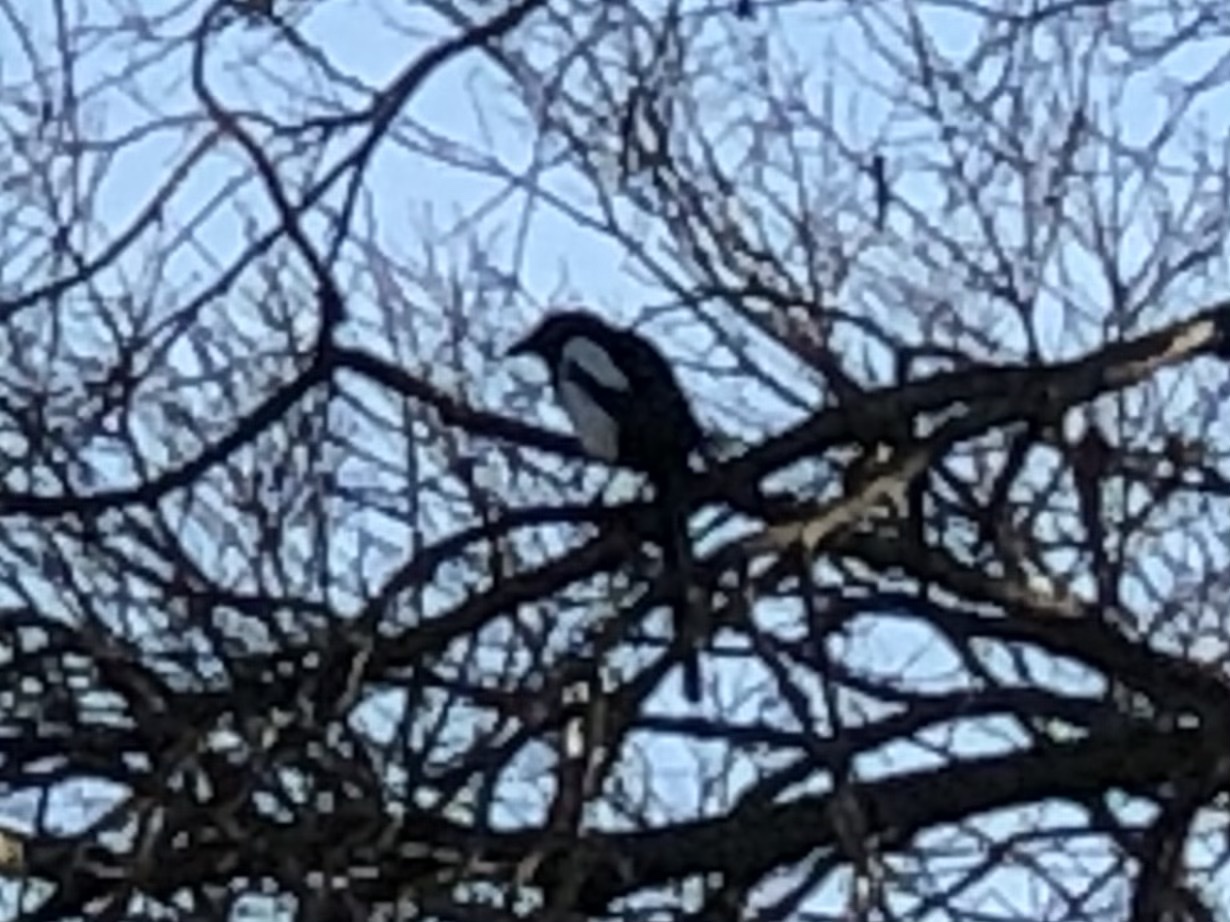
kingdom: Animalia
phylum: Chordata
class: Aves
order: Passeriformes
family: Corvidae
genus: Pica
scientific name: Pica pica
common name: Eurasian magpie
